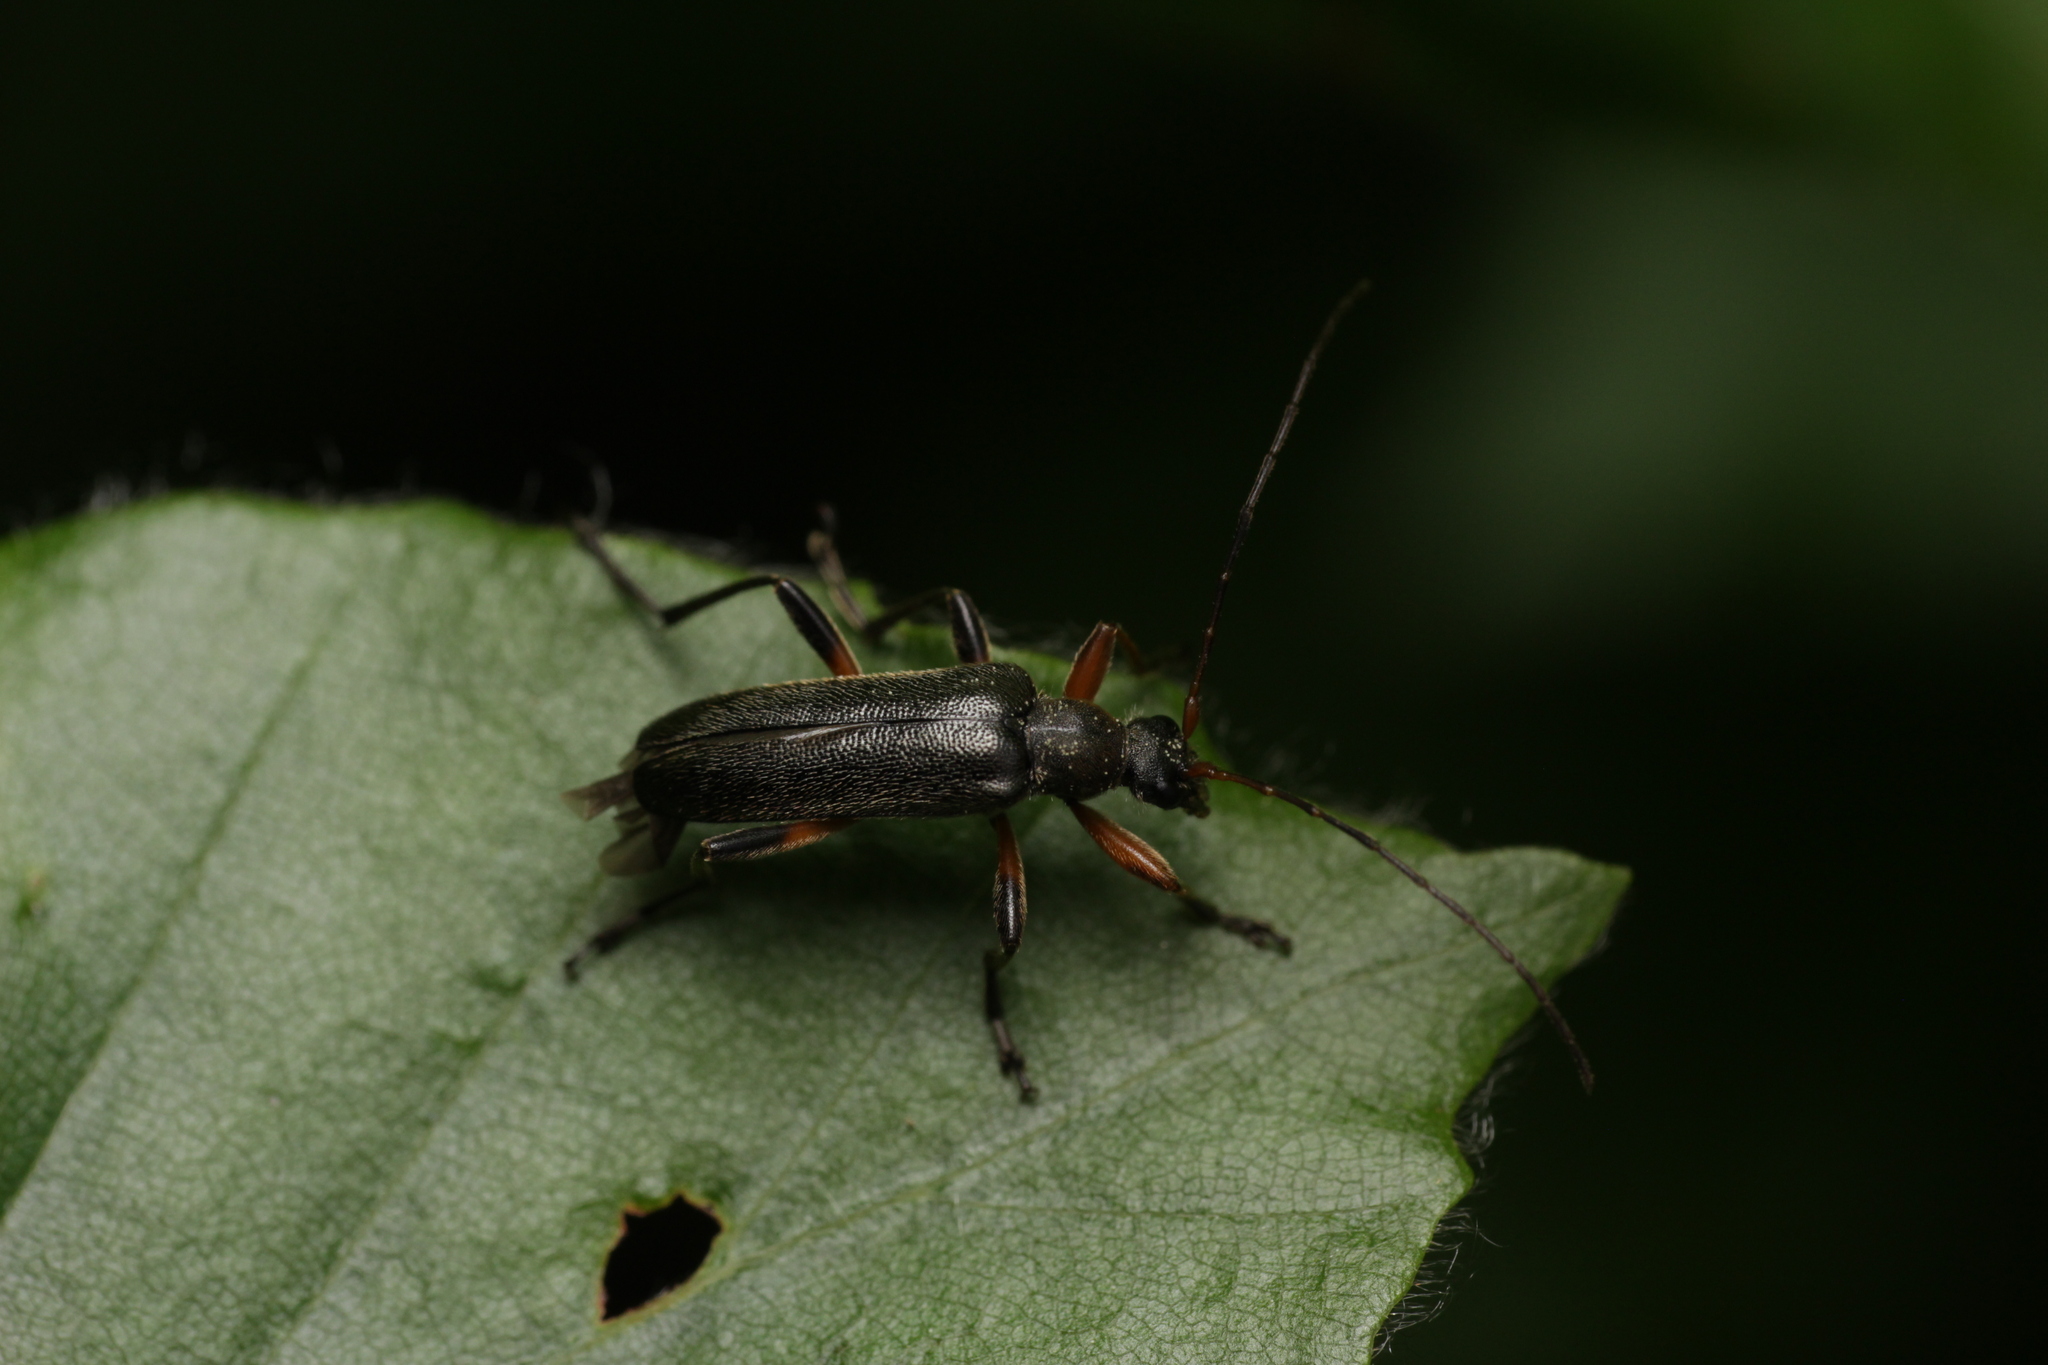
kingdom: Animalia
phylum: Arthropoda
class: Insecta
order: Coleoptera
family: Cerambycidae
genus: Cortodera
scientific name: Cortodera femorata
